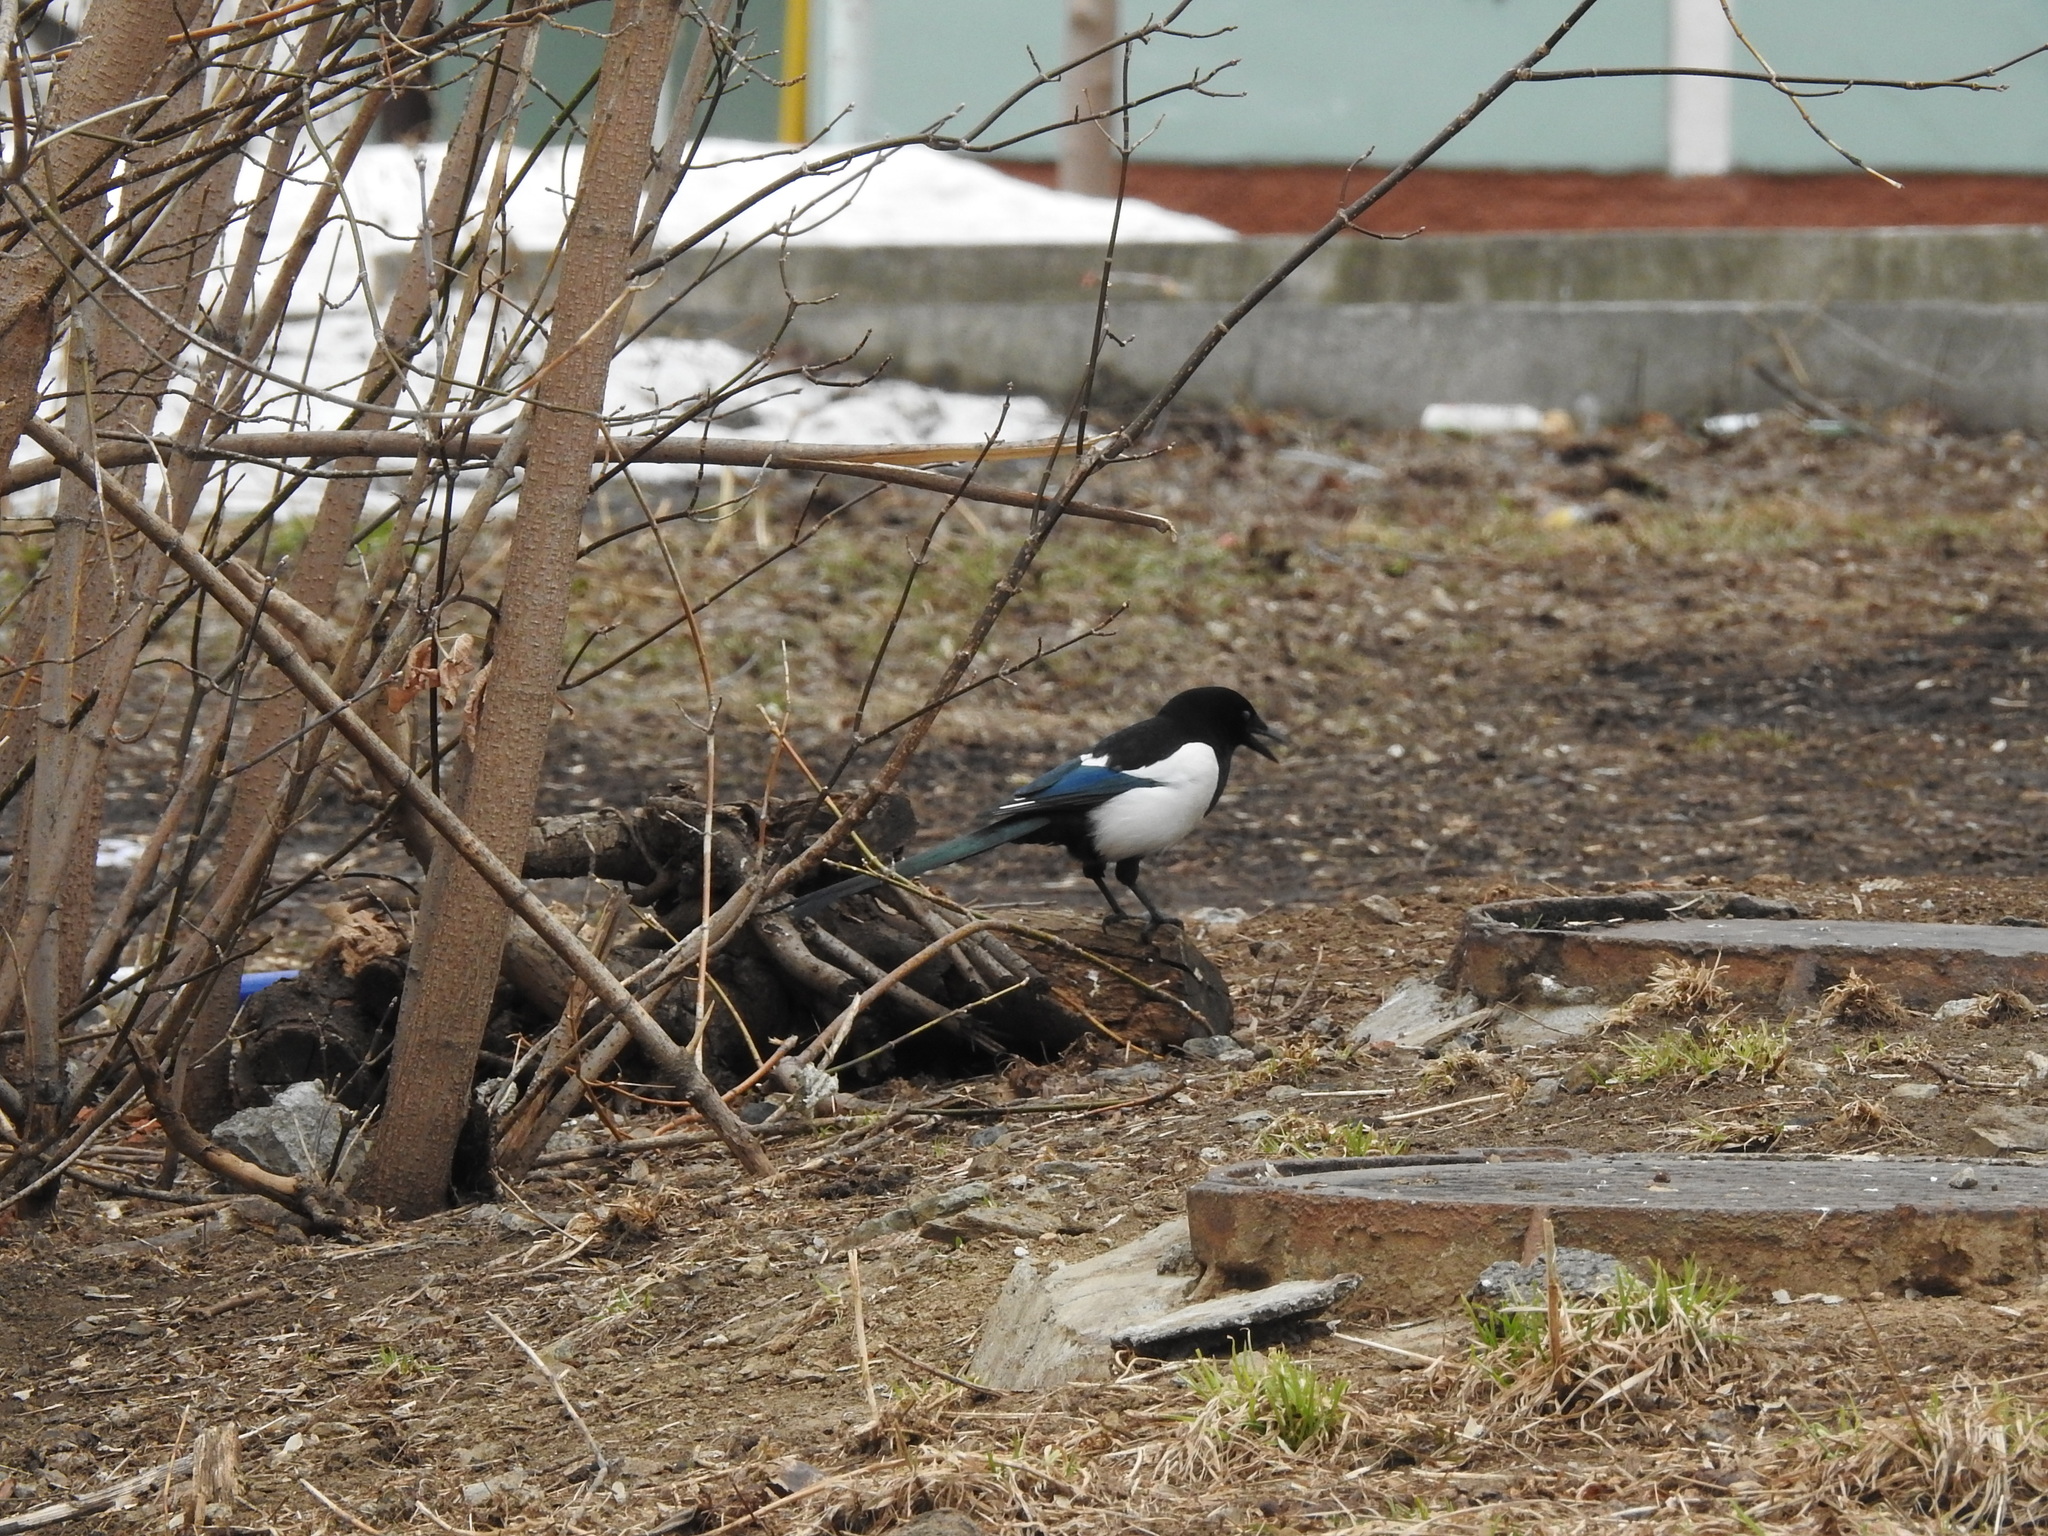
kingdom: Animalia
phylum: Chordata
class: Aves
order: Passeriformes
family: Corvidae
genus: Pica
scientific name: Pica pica
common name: Eurasian magpie
